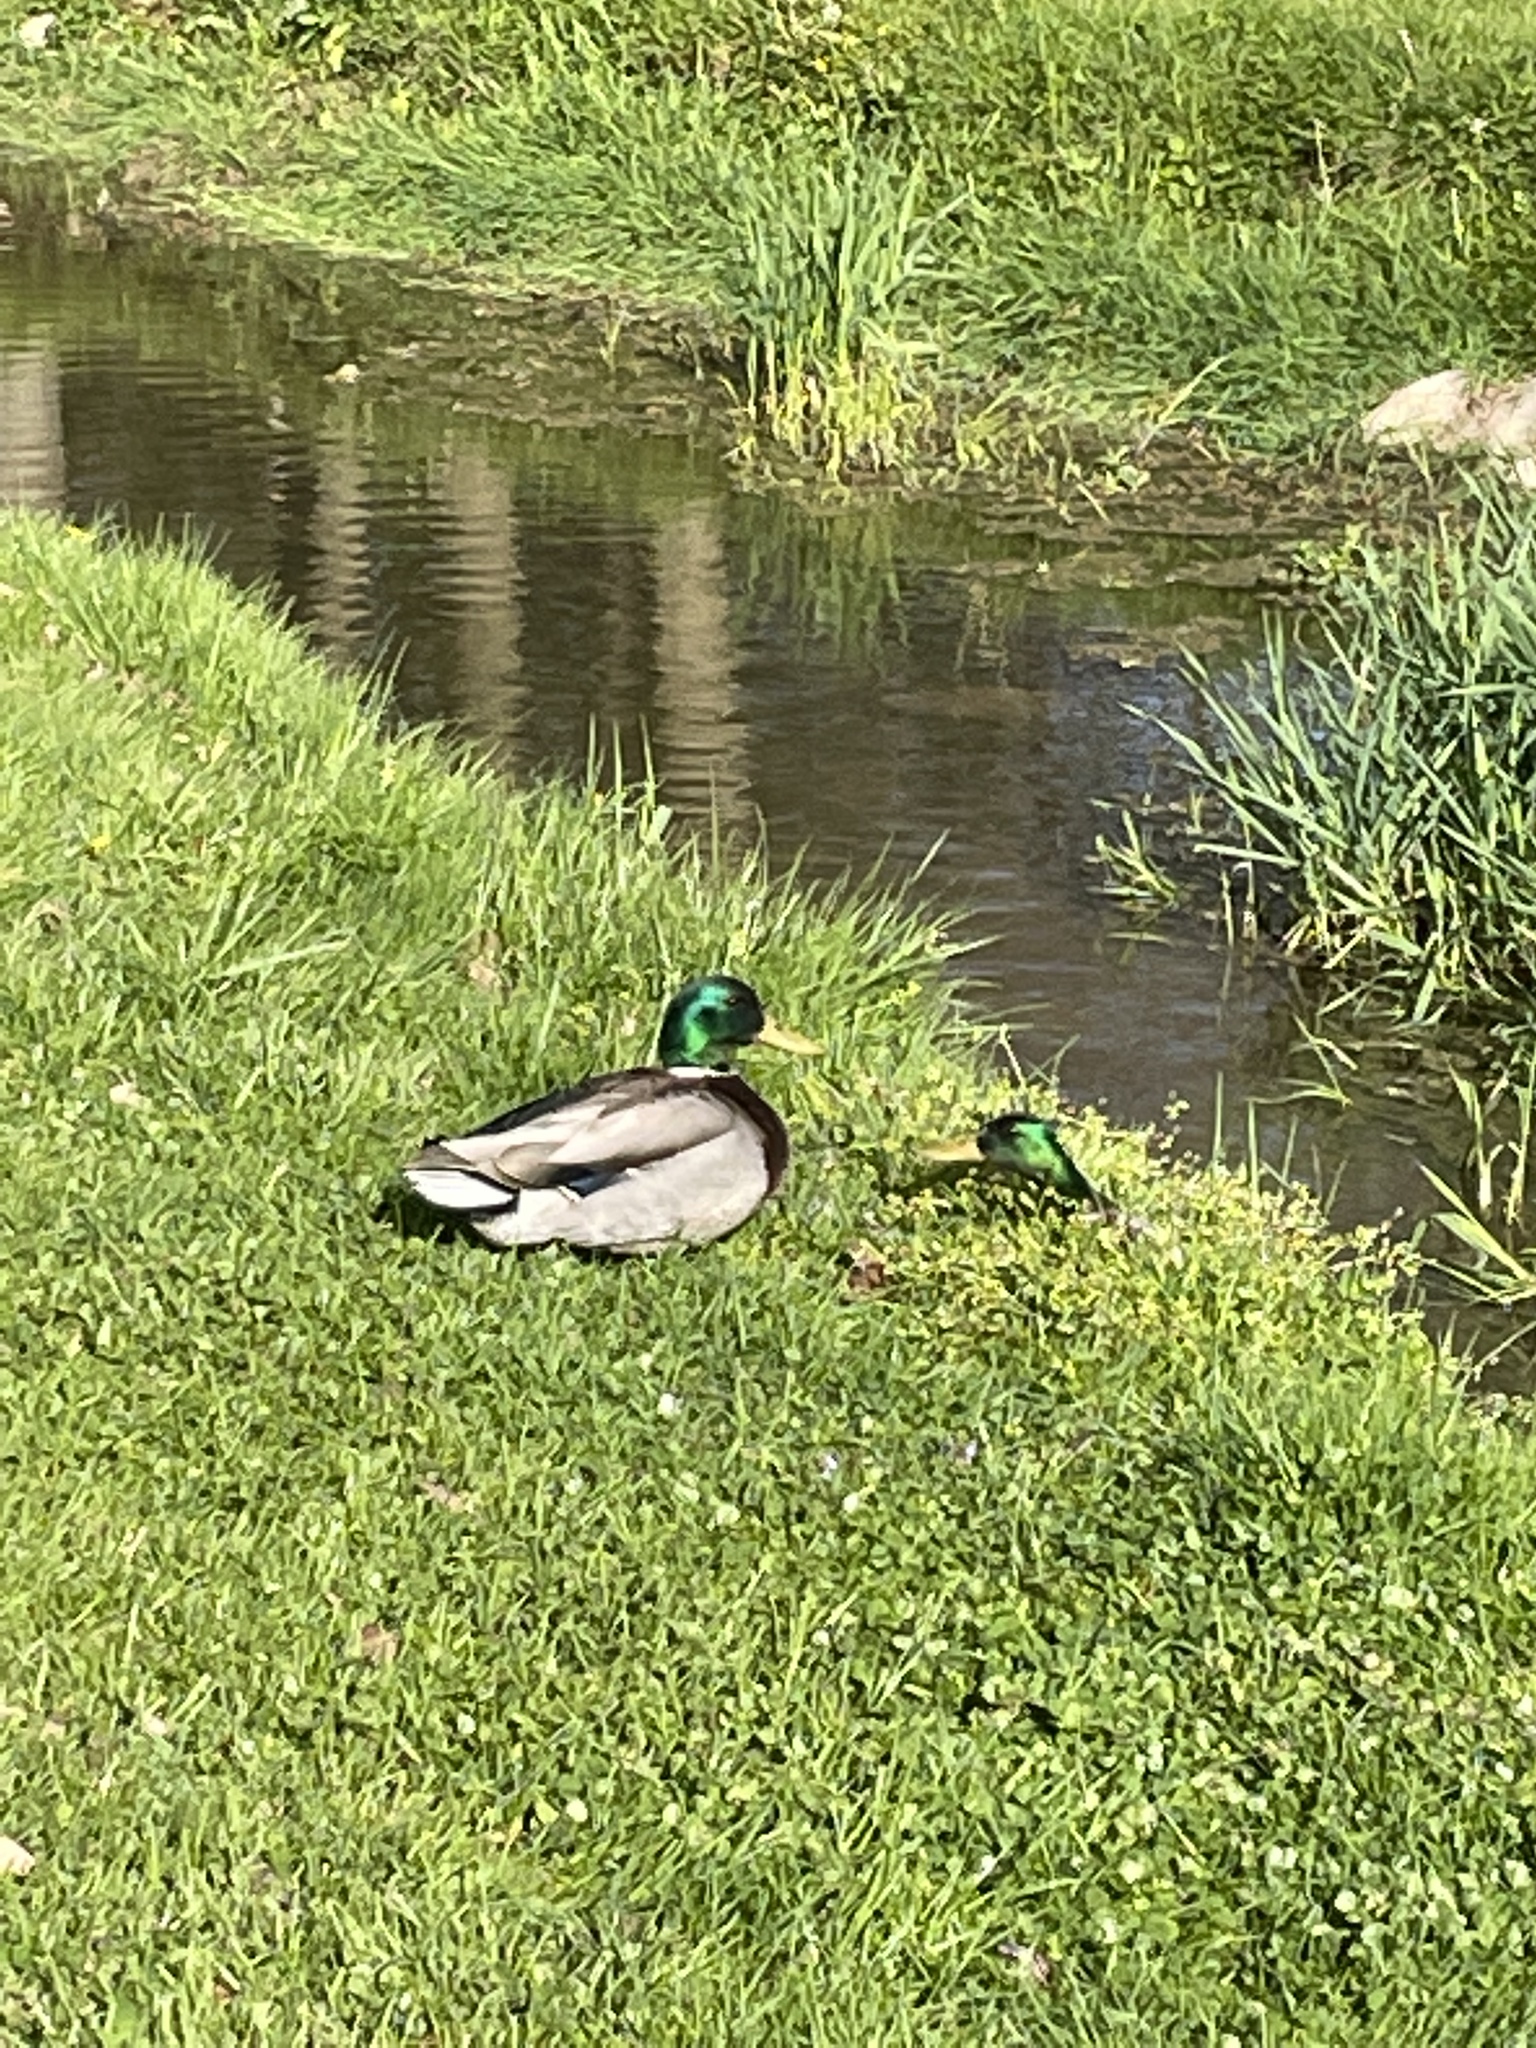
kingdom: Animalia
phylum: Chordata
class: Aves
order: Anseriformes
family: Anatidae
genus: Anas
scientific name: Anas platyrhynchos
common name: Mallard
